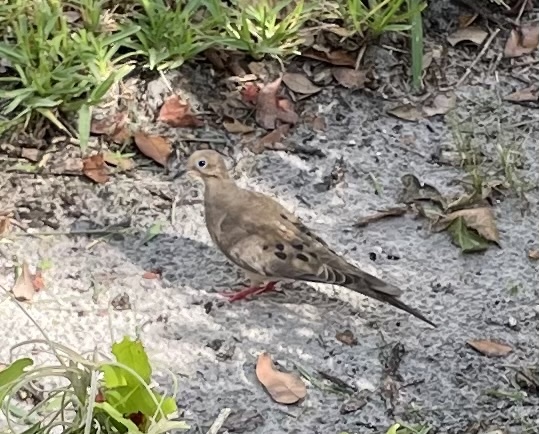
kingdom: Animalia
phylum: Chordata
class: Aves
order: Columbiformes
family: Columbidae
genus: Zenaida
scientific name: Zenaida macroura
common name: Mourning dove
